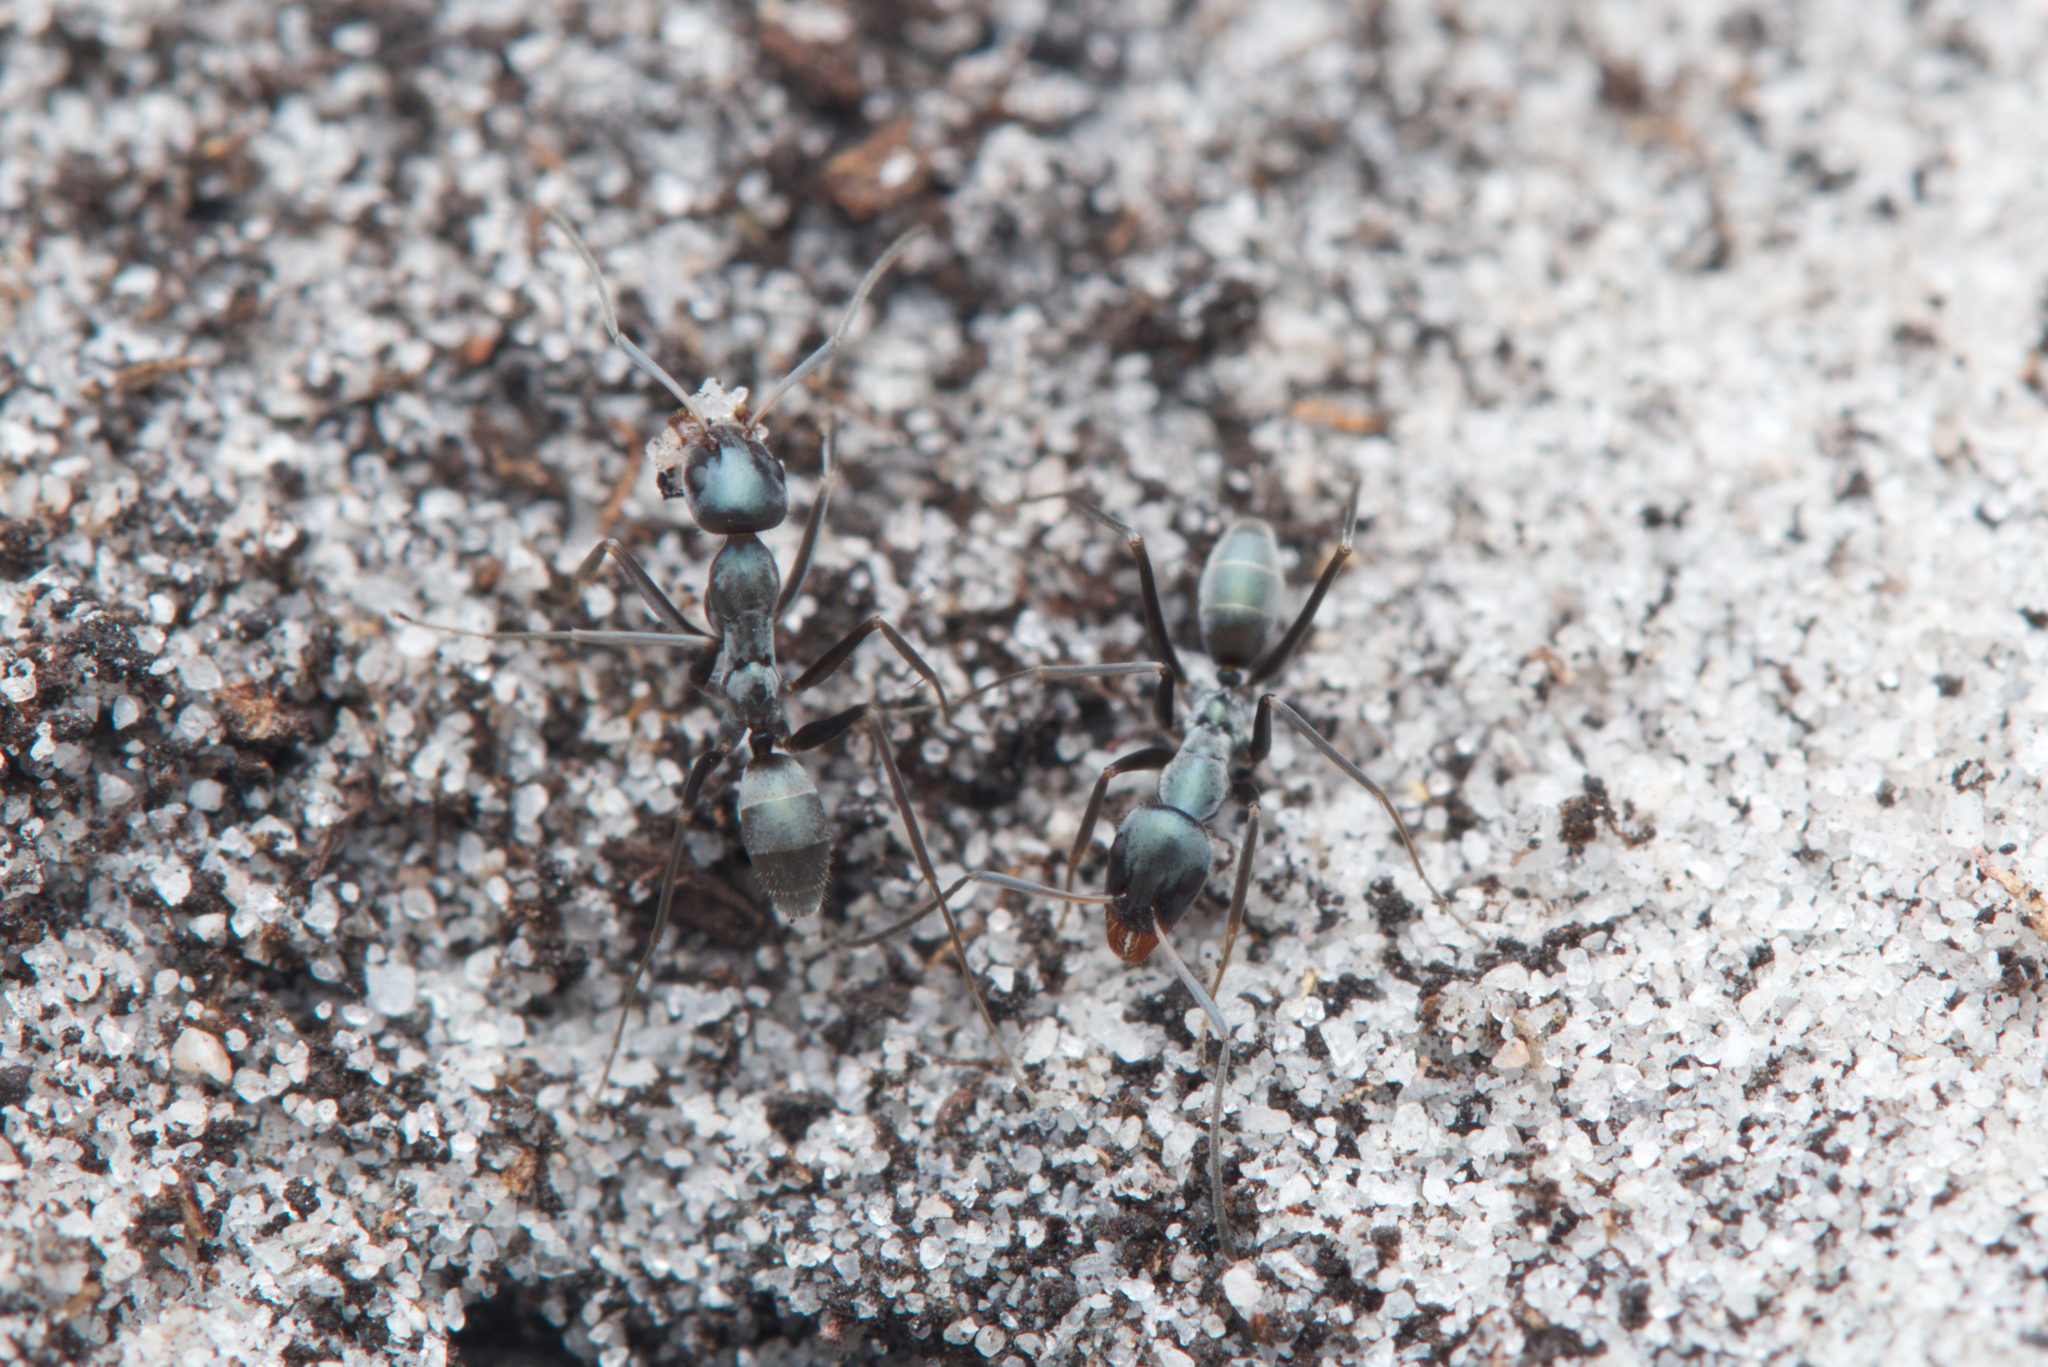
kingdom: Animalia
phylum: Arthropoda
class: Insecta
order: Hymenoptera
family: Formicidae
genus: Iridomyrmex
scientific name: Iridomyrmex bicknelli
